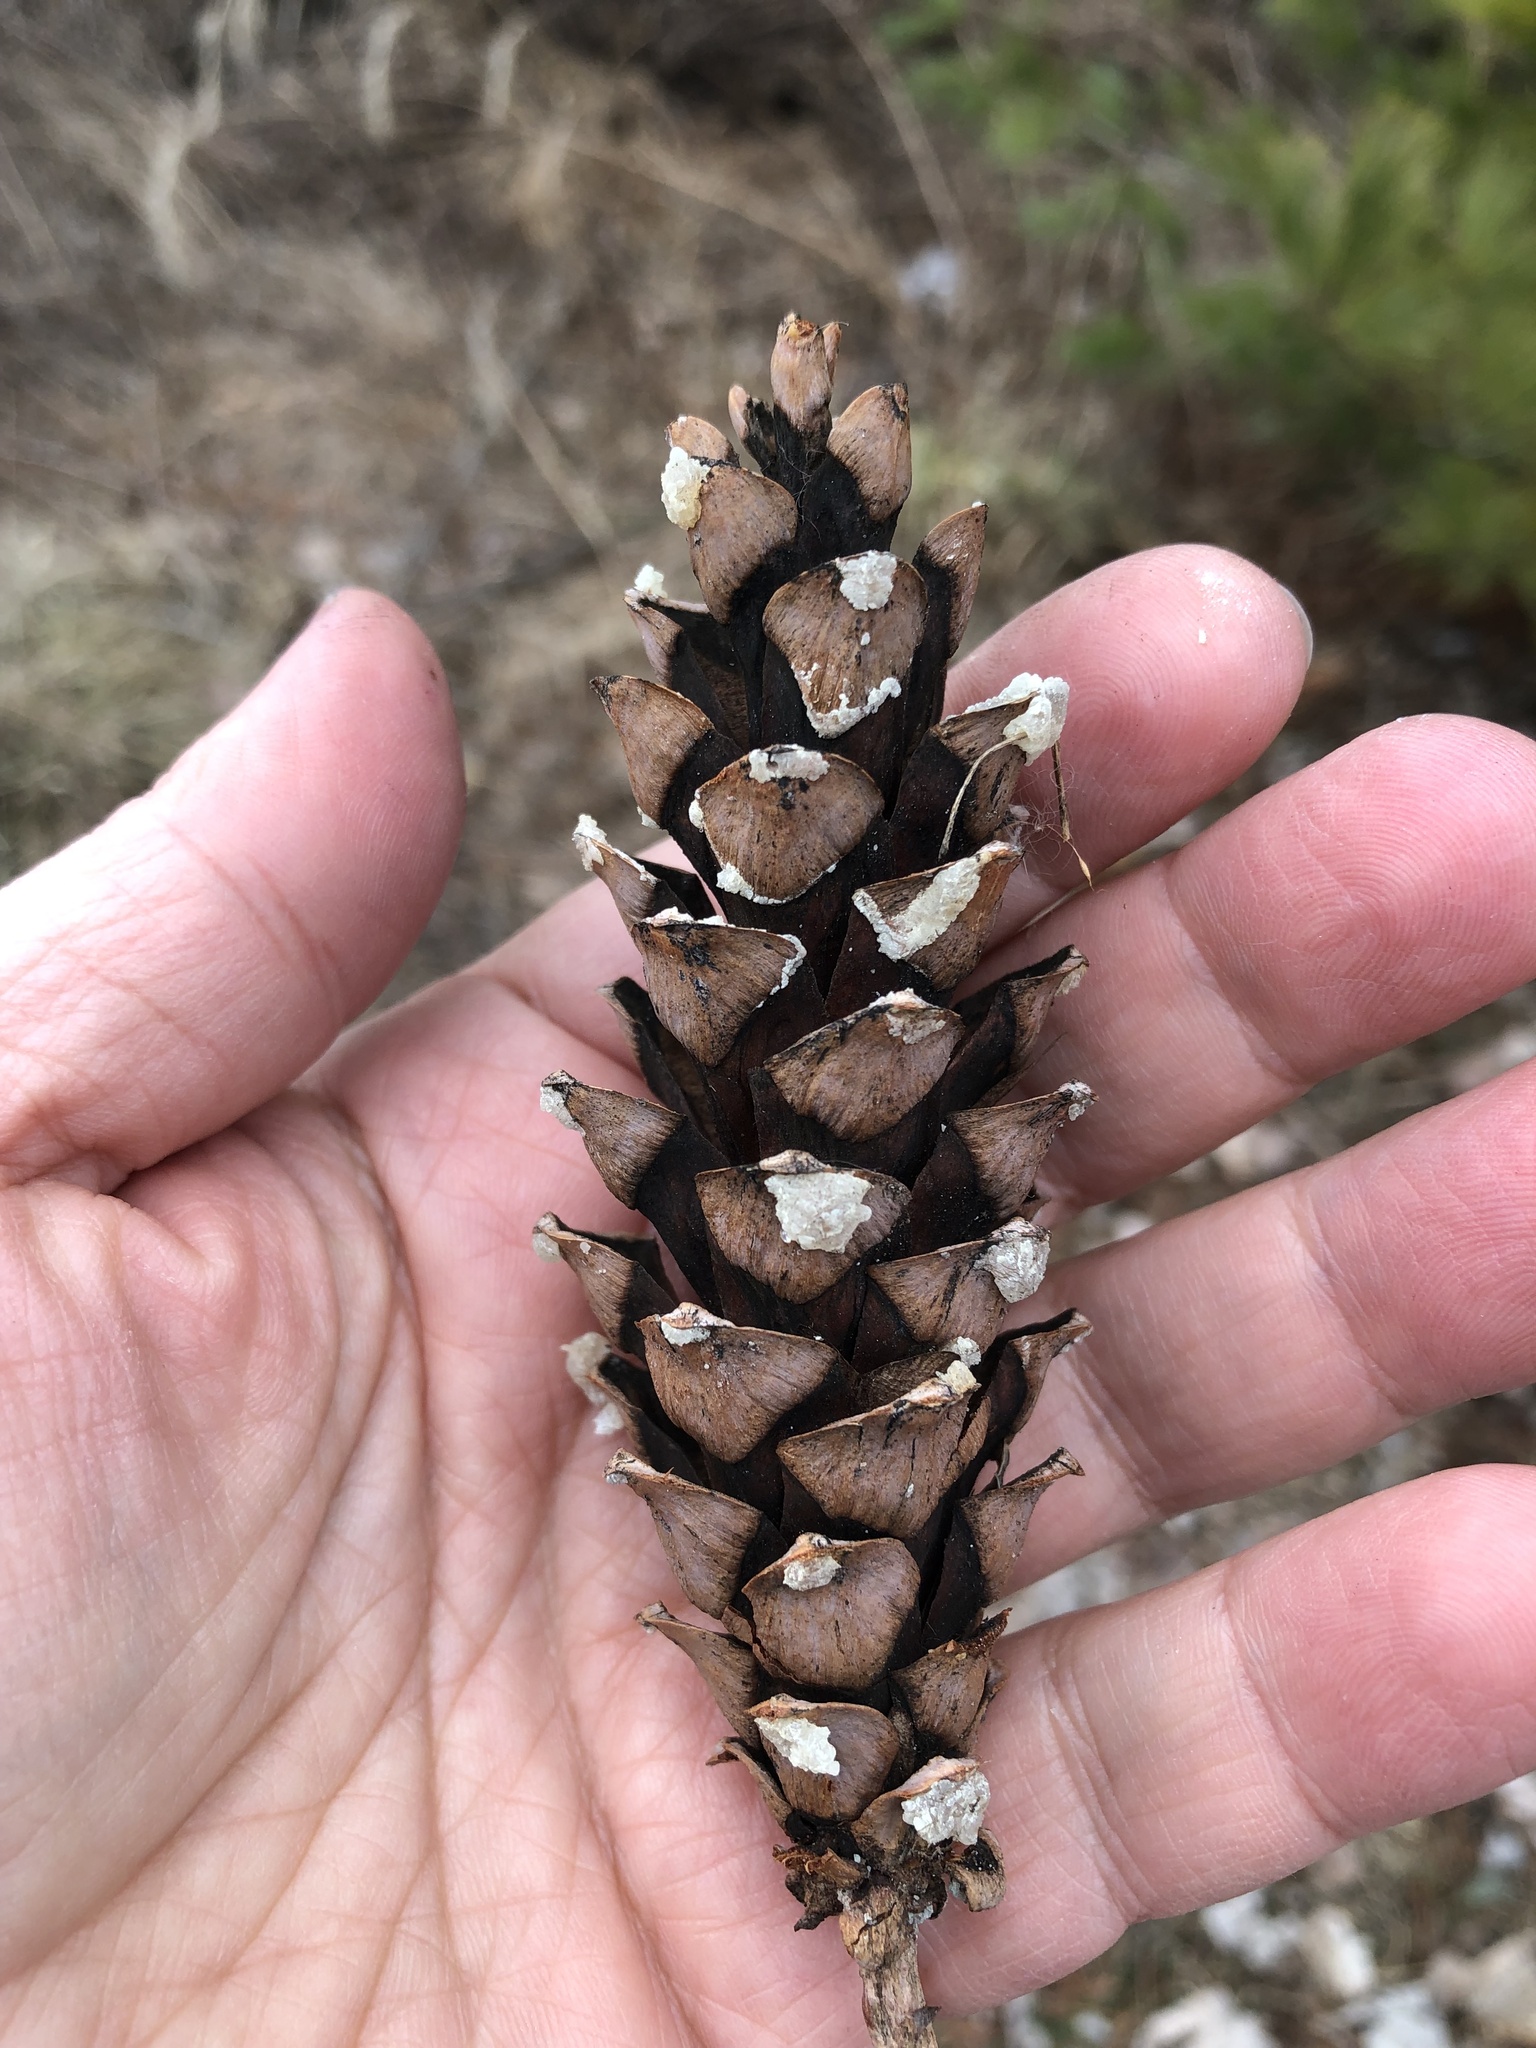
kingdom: Plantae
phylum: Tracheophyta
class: Pinopsida
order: Pinales
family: Pinaceae
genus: Pinus
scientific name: Pinus strobus
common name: Weymouth pine
